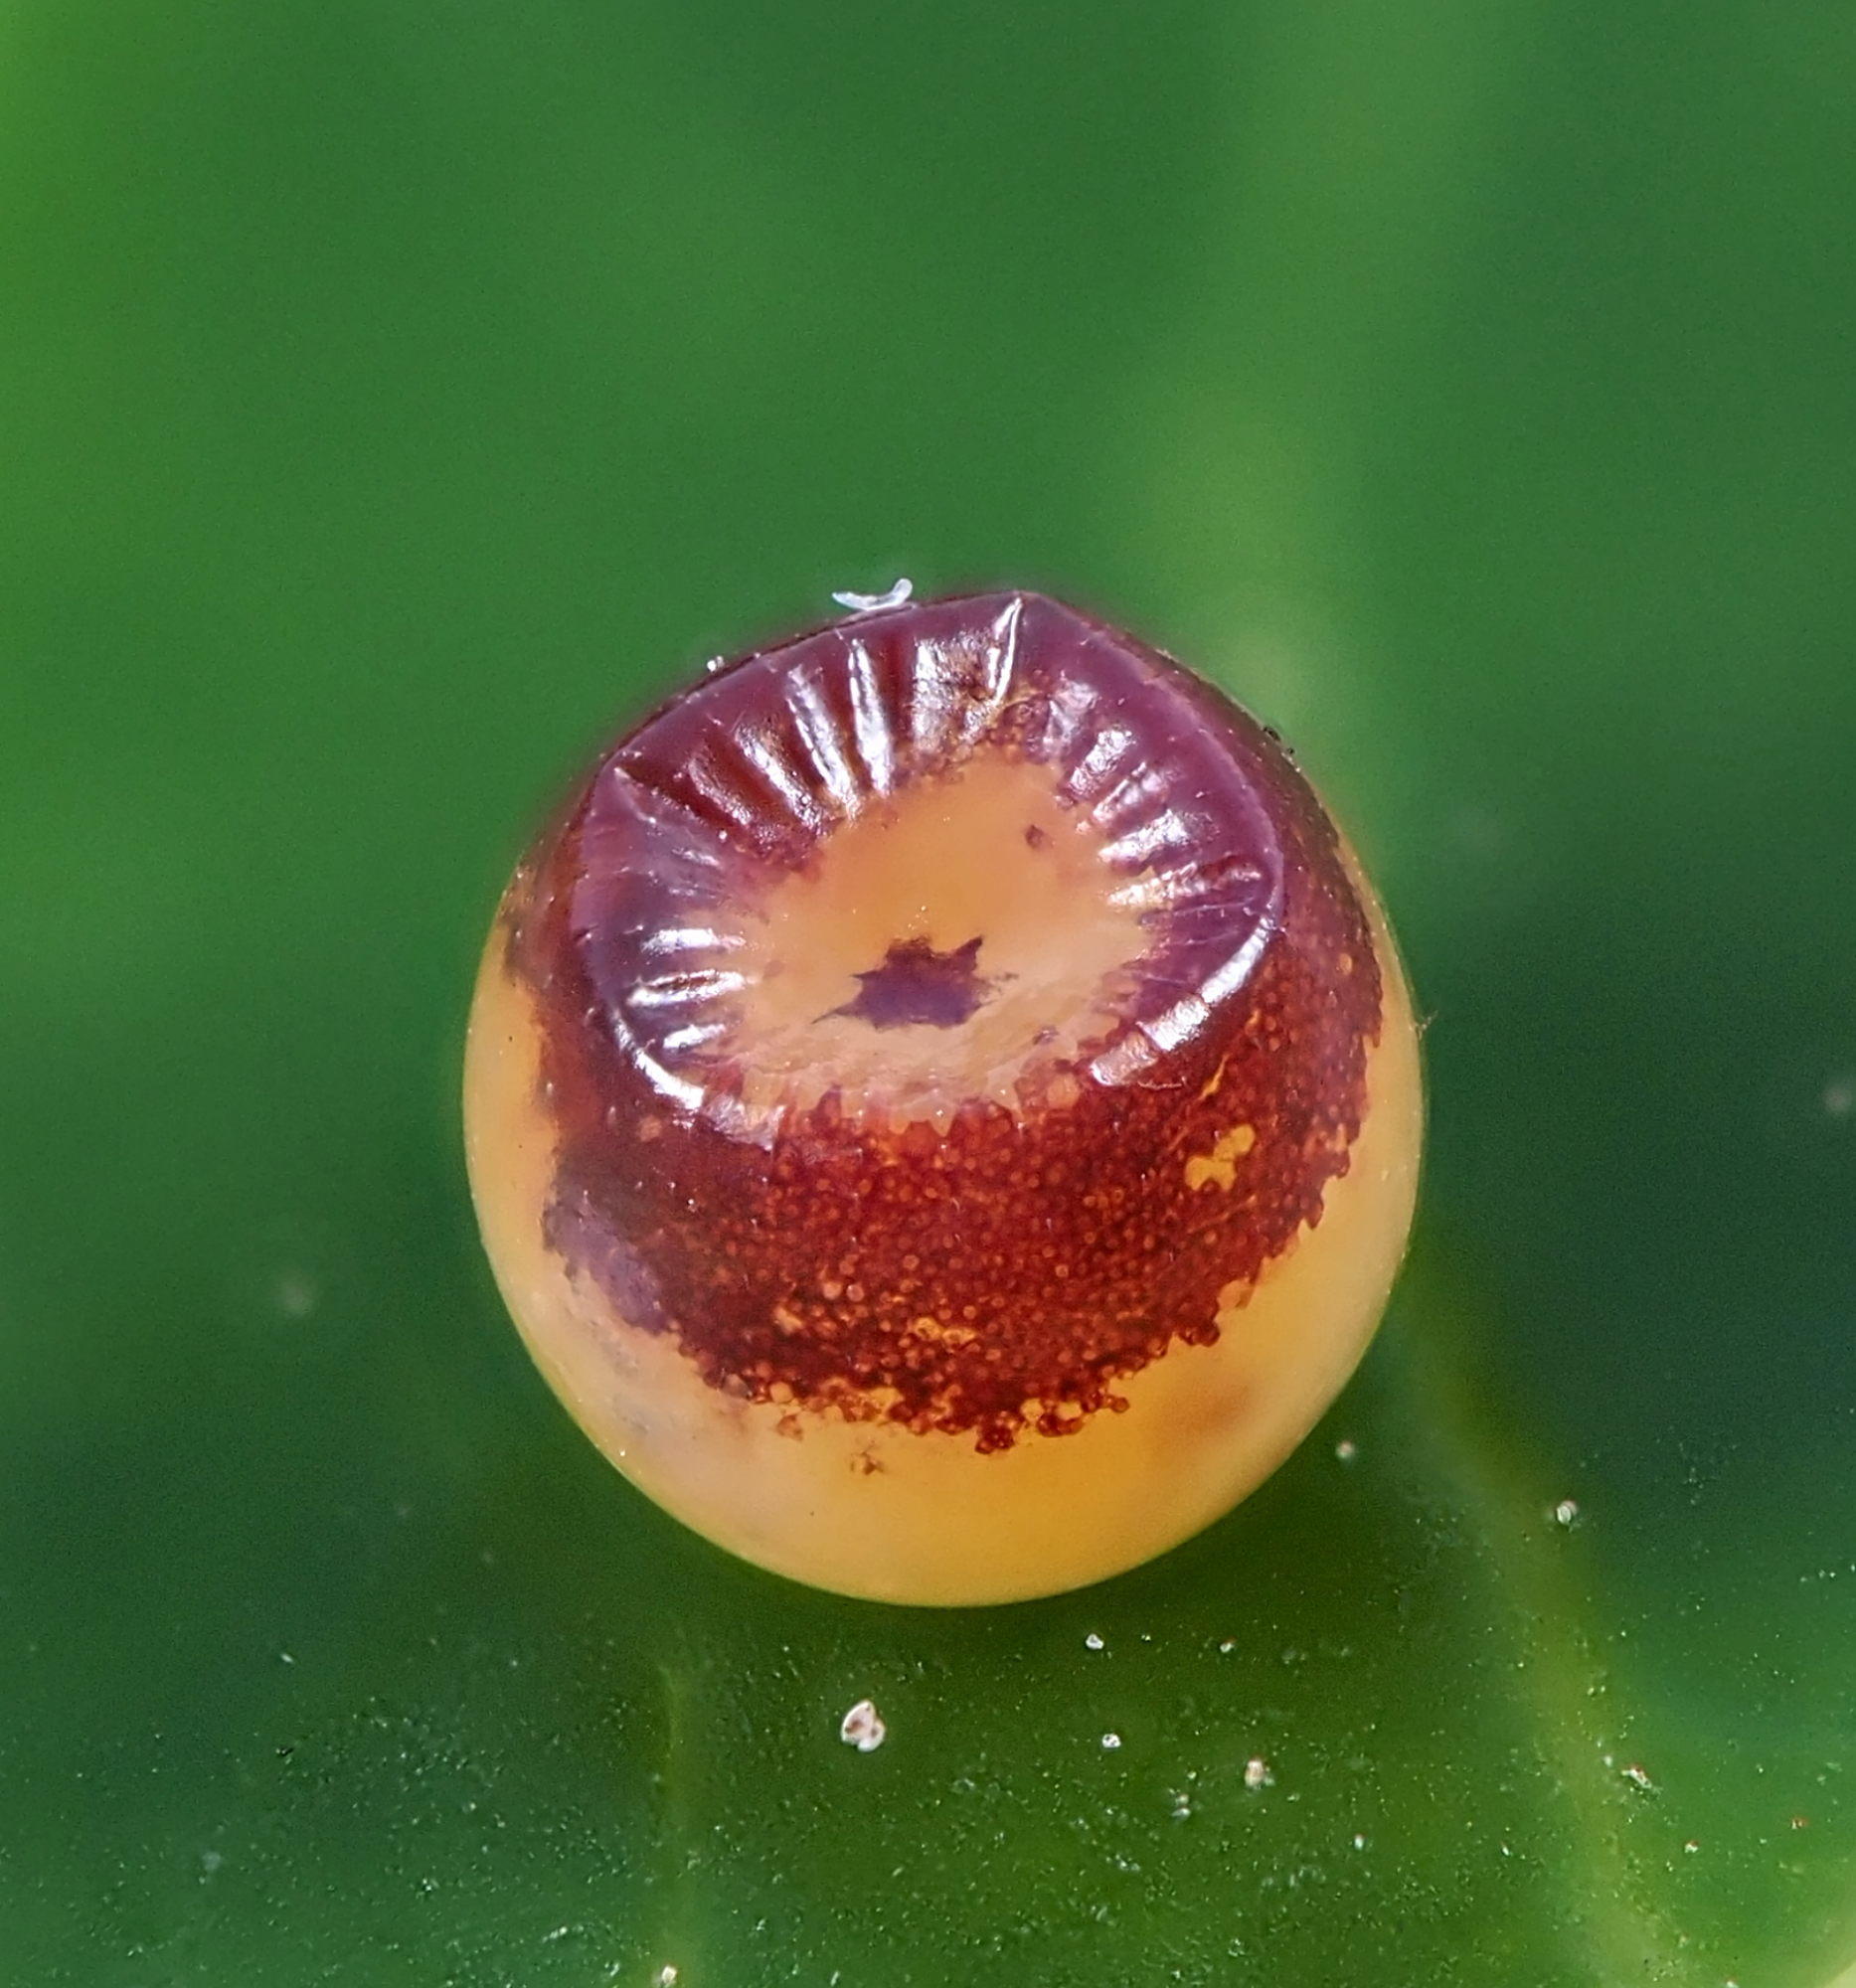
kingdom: Animalia
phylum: Arthropoda
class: Insecta
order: Lepidoptera
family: Nymphalidae
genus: Charaxes
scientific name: Charaxes jasius
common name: Two tailed pasha
